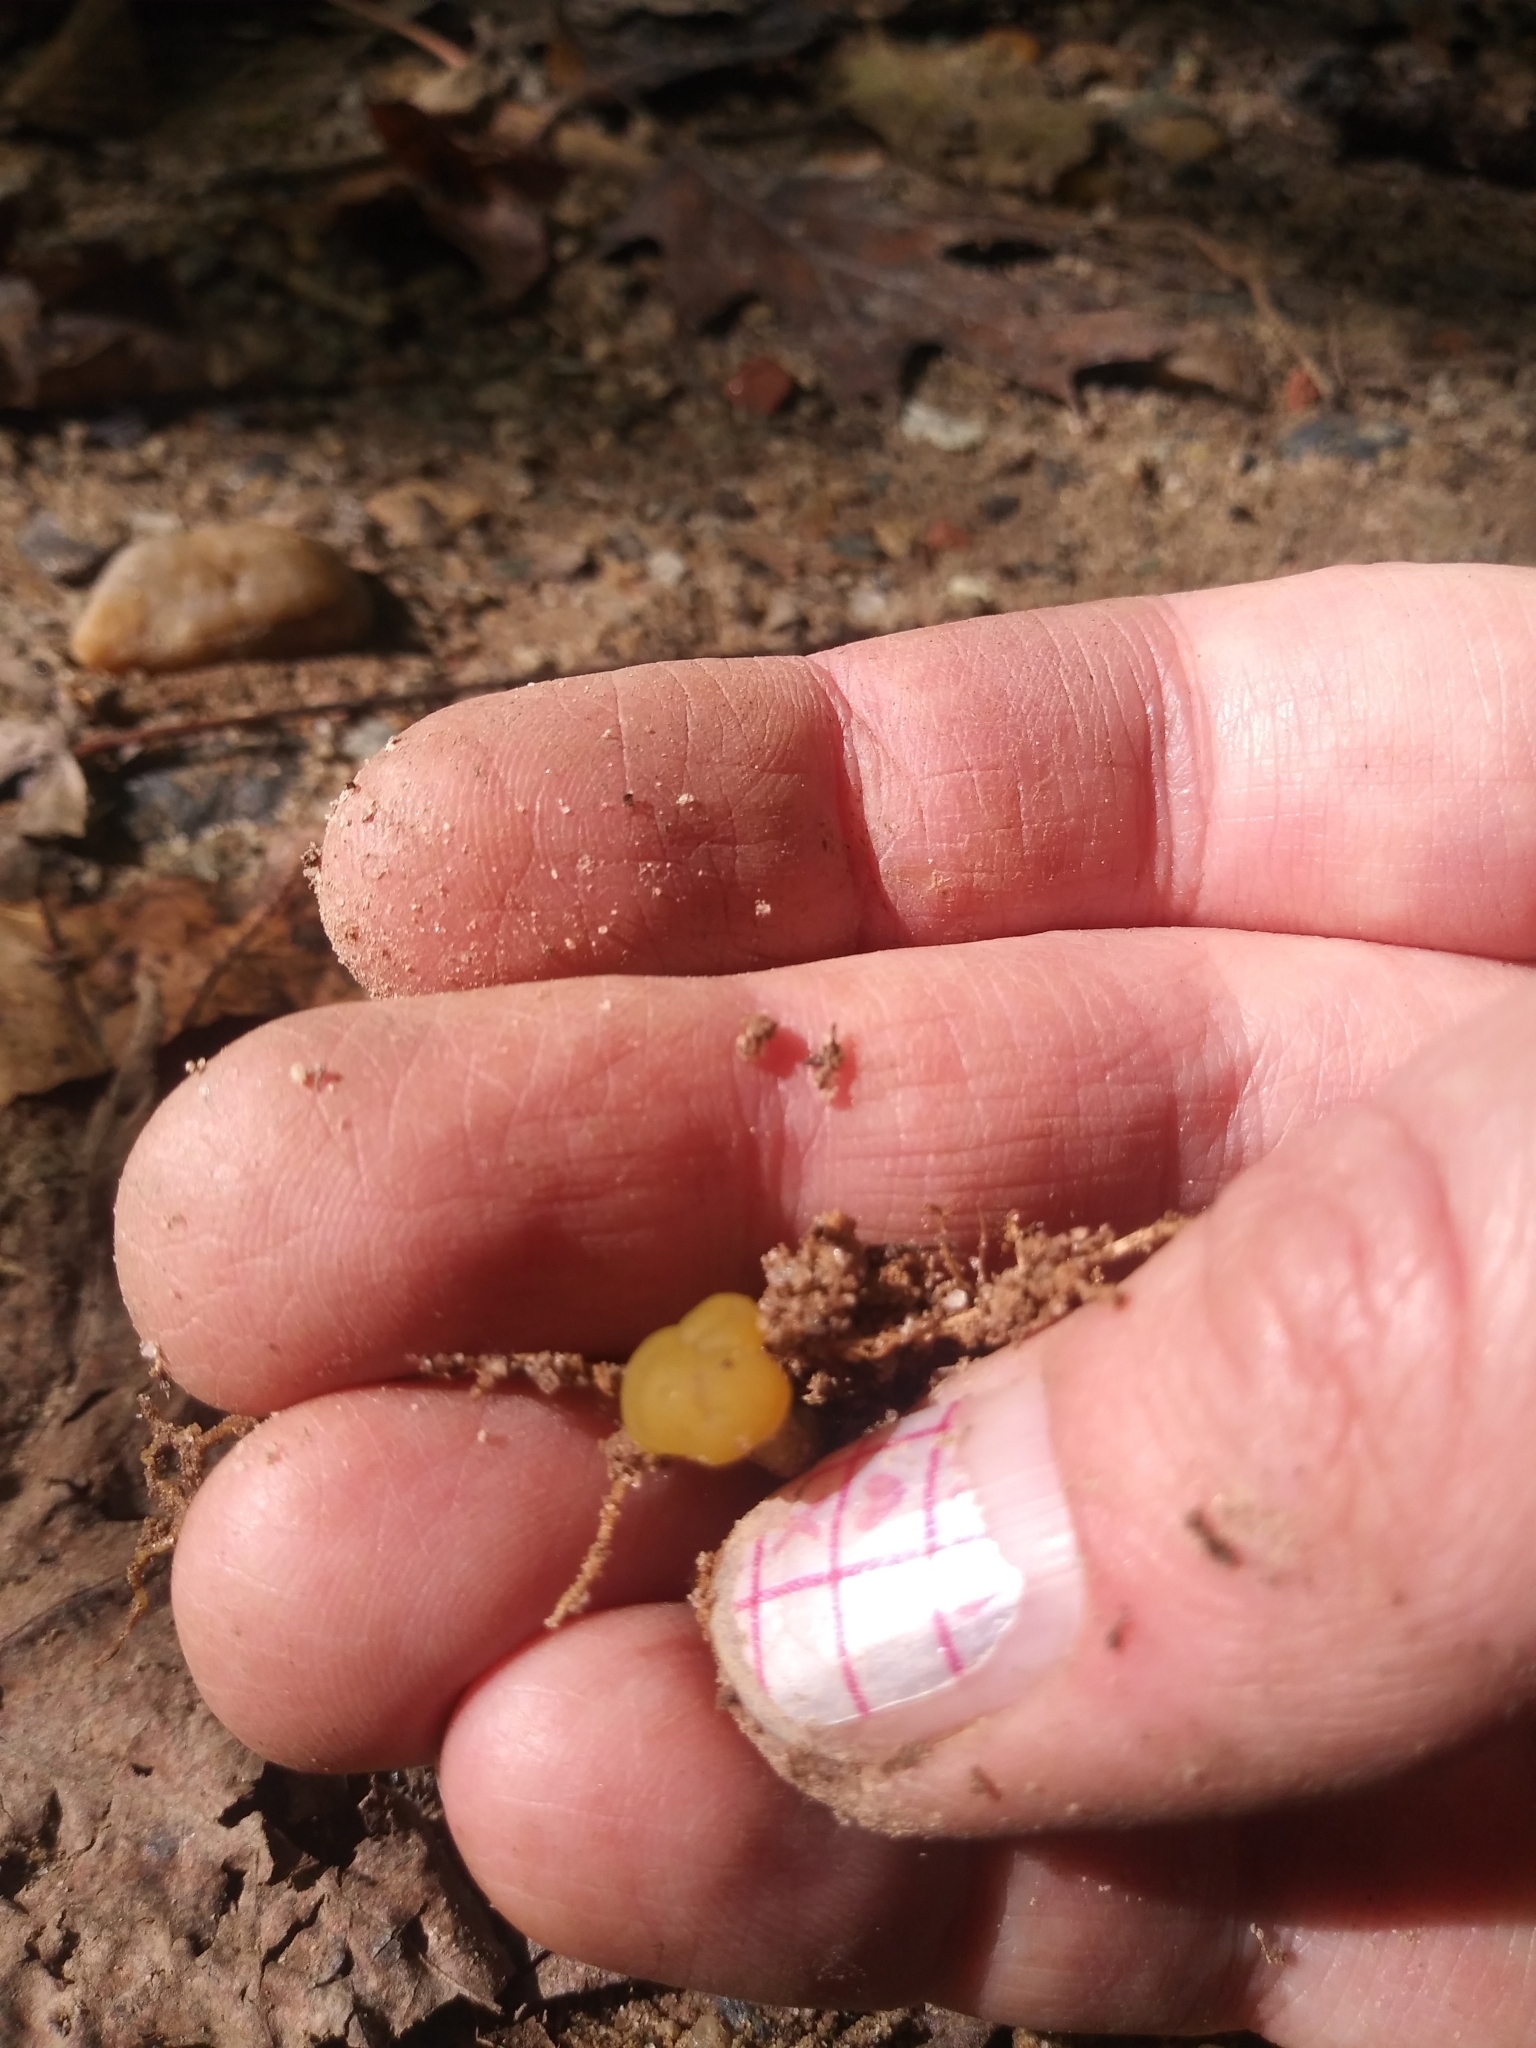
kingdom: Fungi
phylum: Ascomycota
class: Leotiomycetes
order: Leotiales
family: Leotiaceae
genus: Leotia
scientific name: Leotia lubrica
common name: Jellybaby
